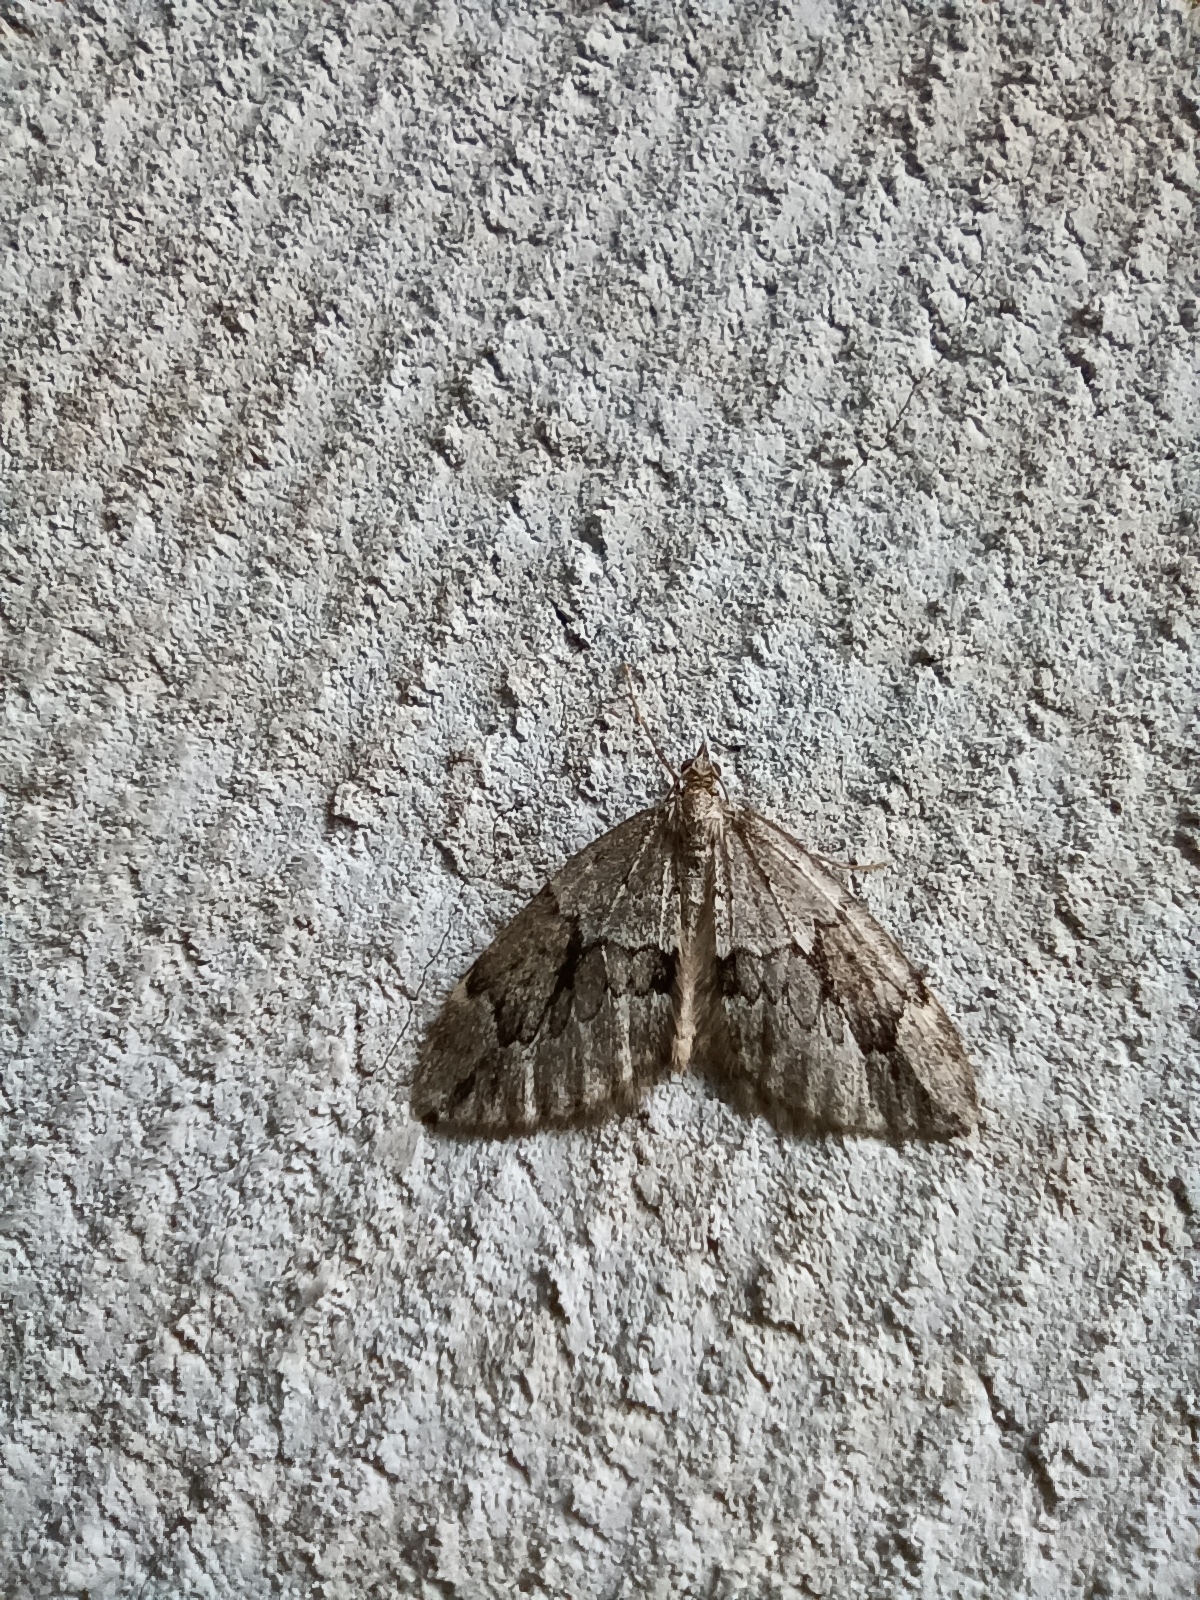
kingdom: Animalia
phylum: Arthropoda
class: Insecta
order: Lepidoptera
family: Geometridae
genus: Thera
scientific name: Thera juniperata
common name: Juniper carpet
